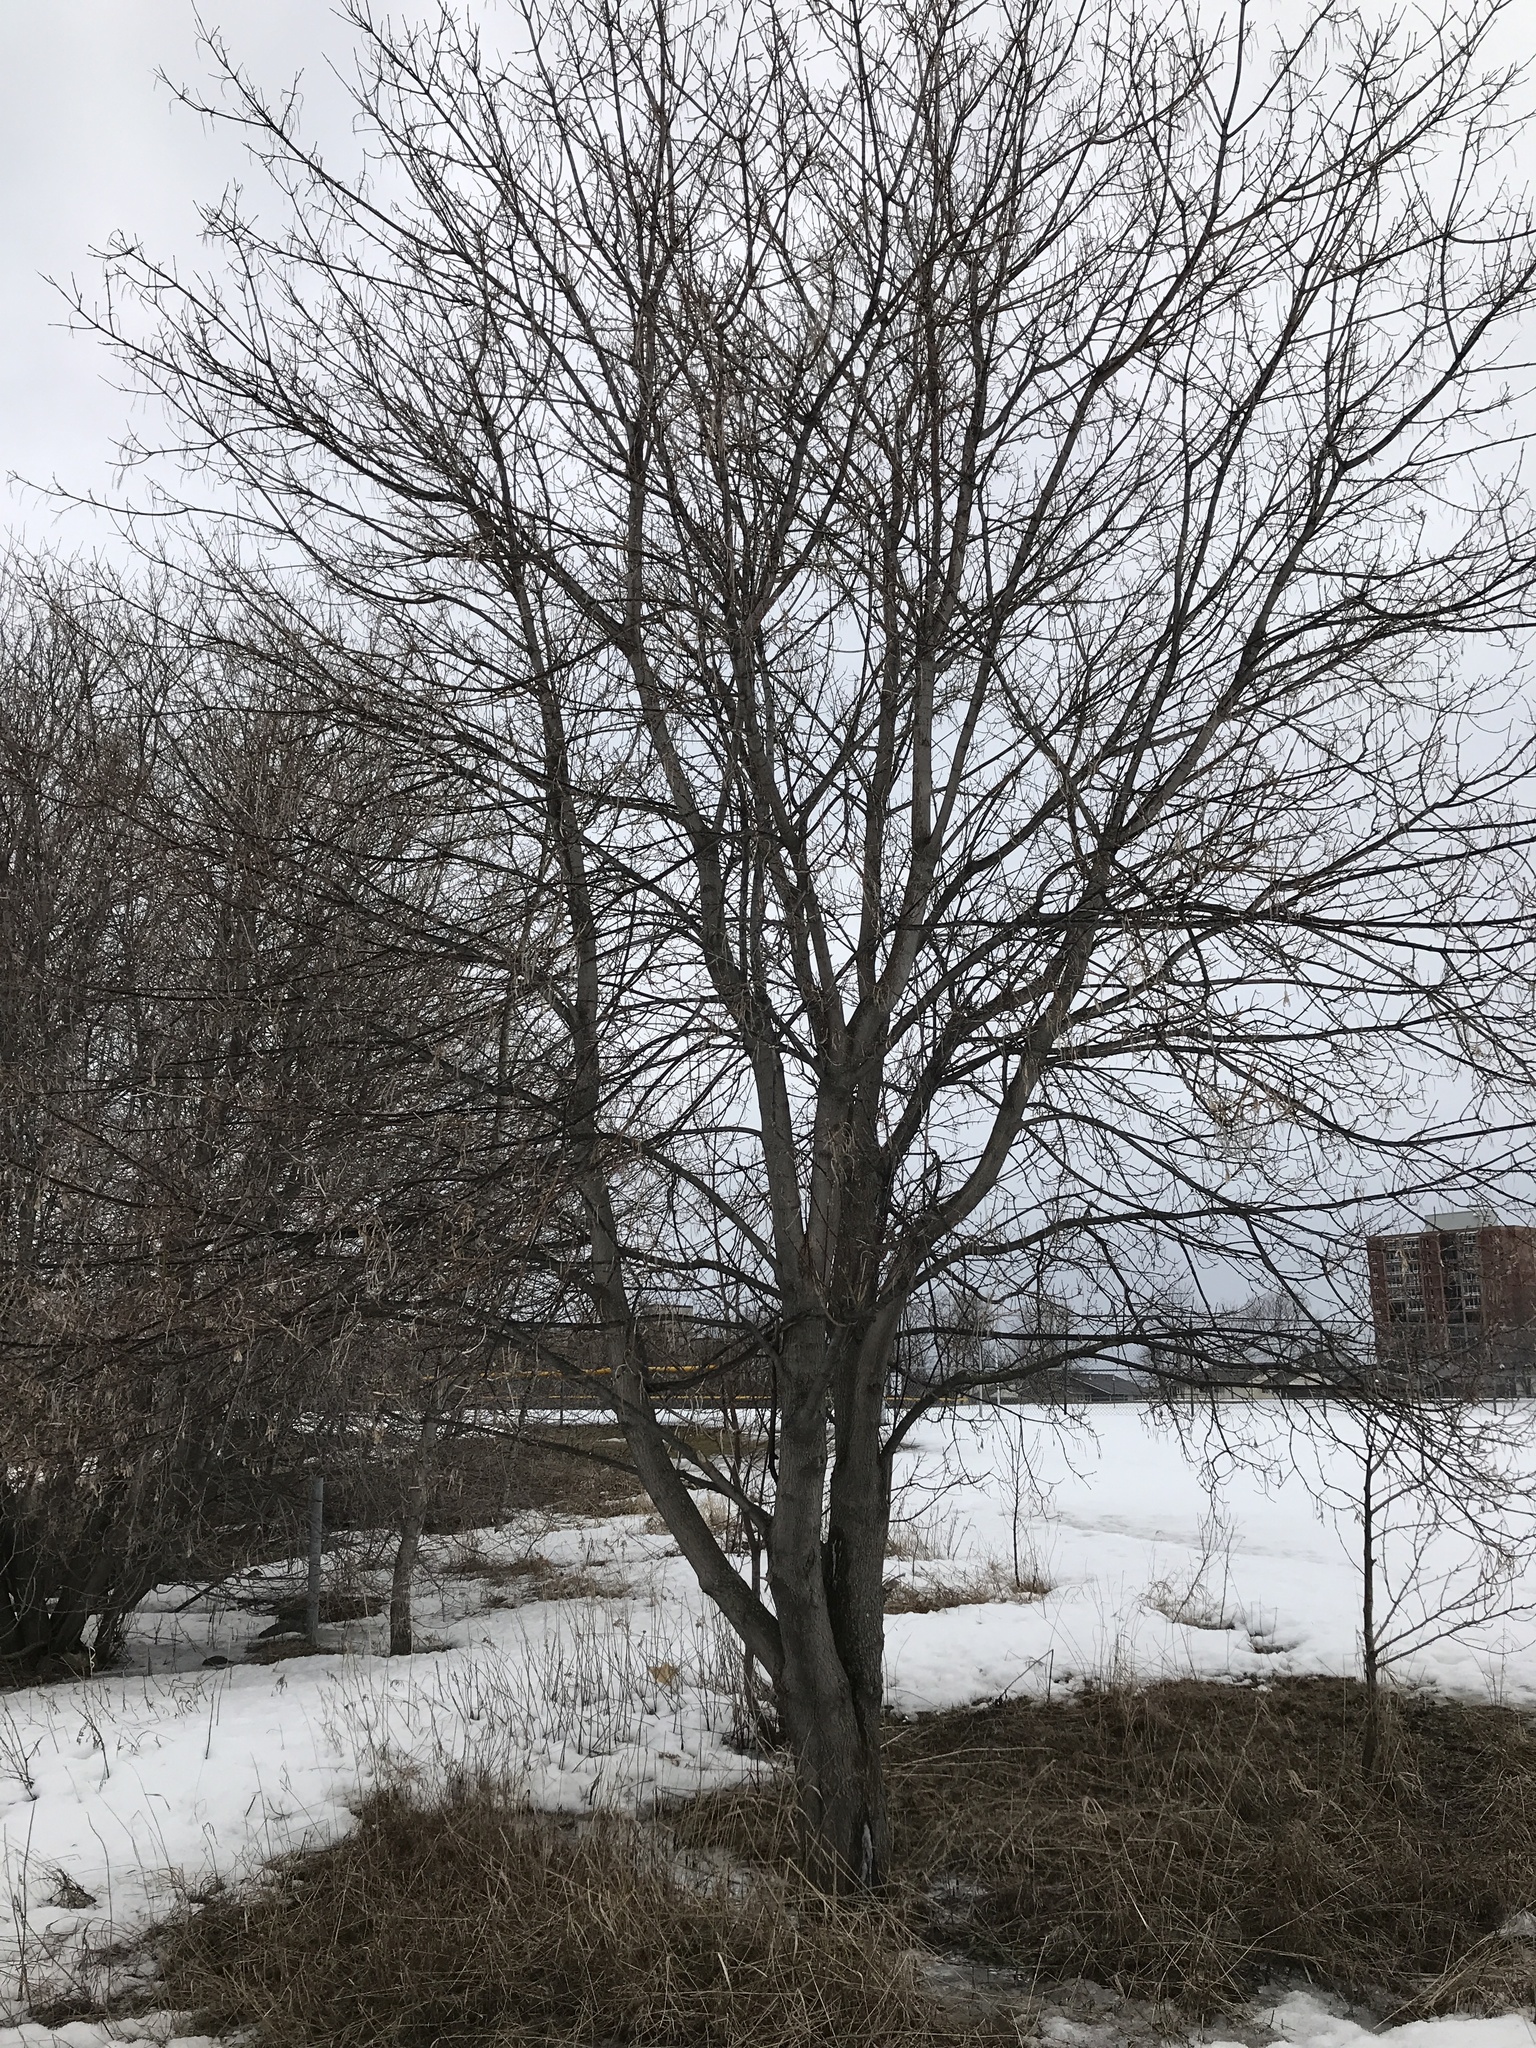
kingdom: Plantae
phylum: Tracheophyta
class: Magnoliopsida
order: Sapindales
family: Sapindaceae
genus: Acer
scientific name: Acer negundo
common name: Ashleaf maple
